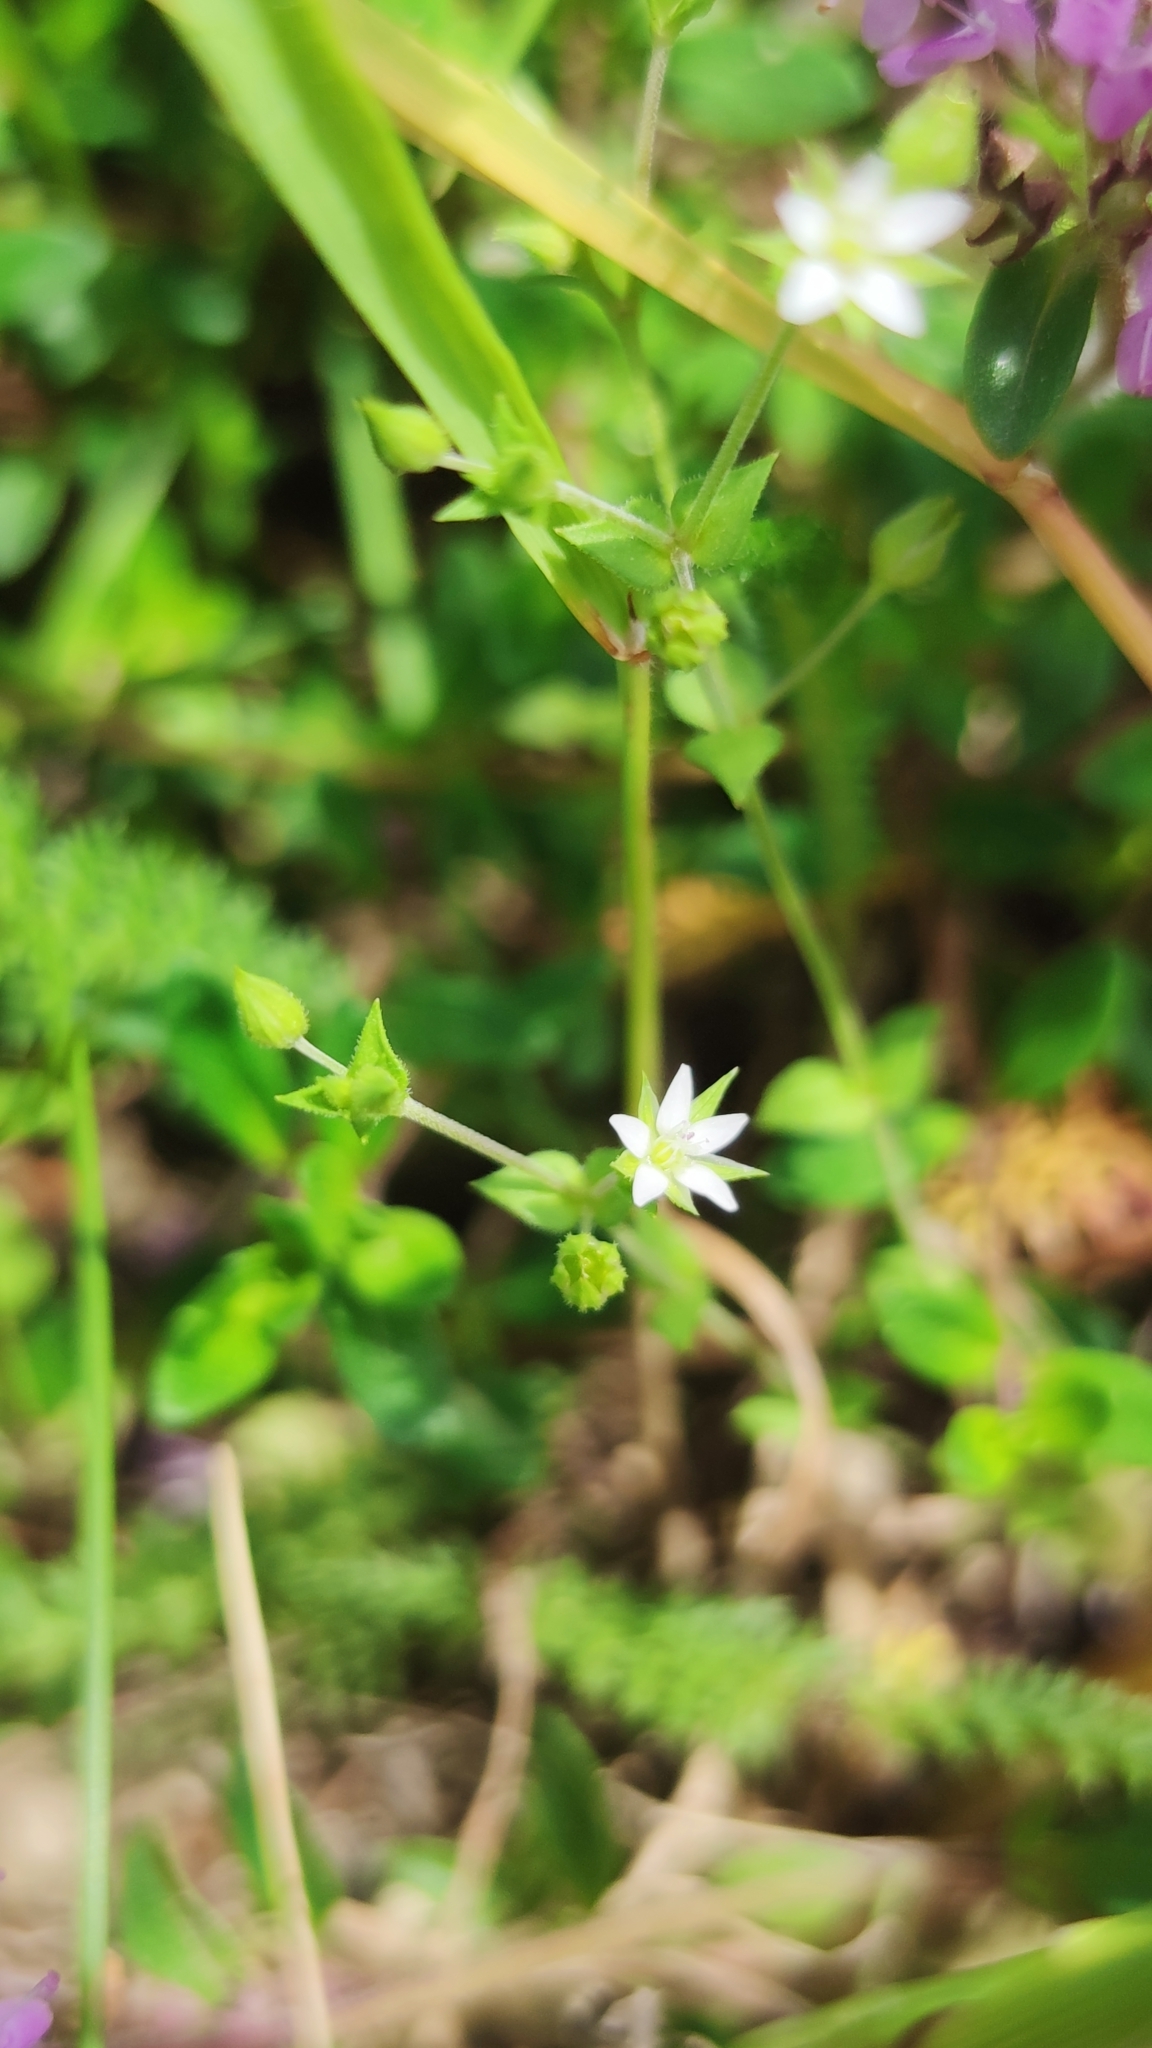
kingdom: Plantae
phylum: Tracheophyta
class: Magnoliopsida
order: Caryophyllales
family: Caryophyllaceae
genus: Arenaria
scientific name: Arenaria serpyllifolia
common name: Thyme-leaved sandwort
